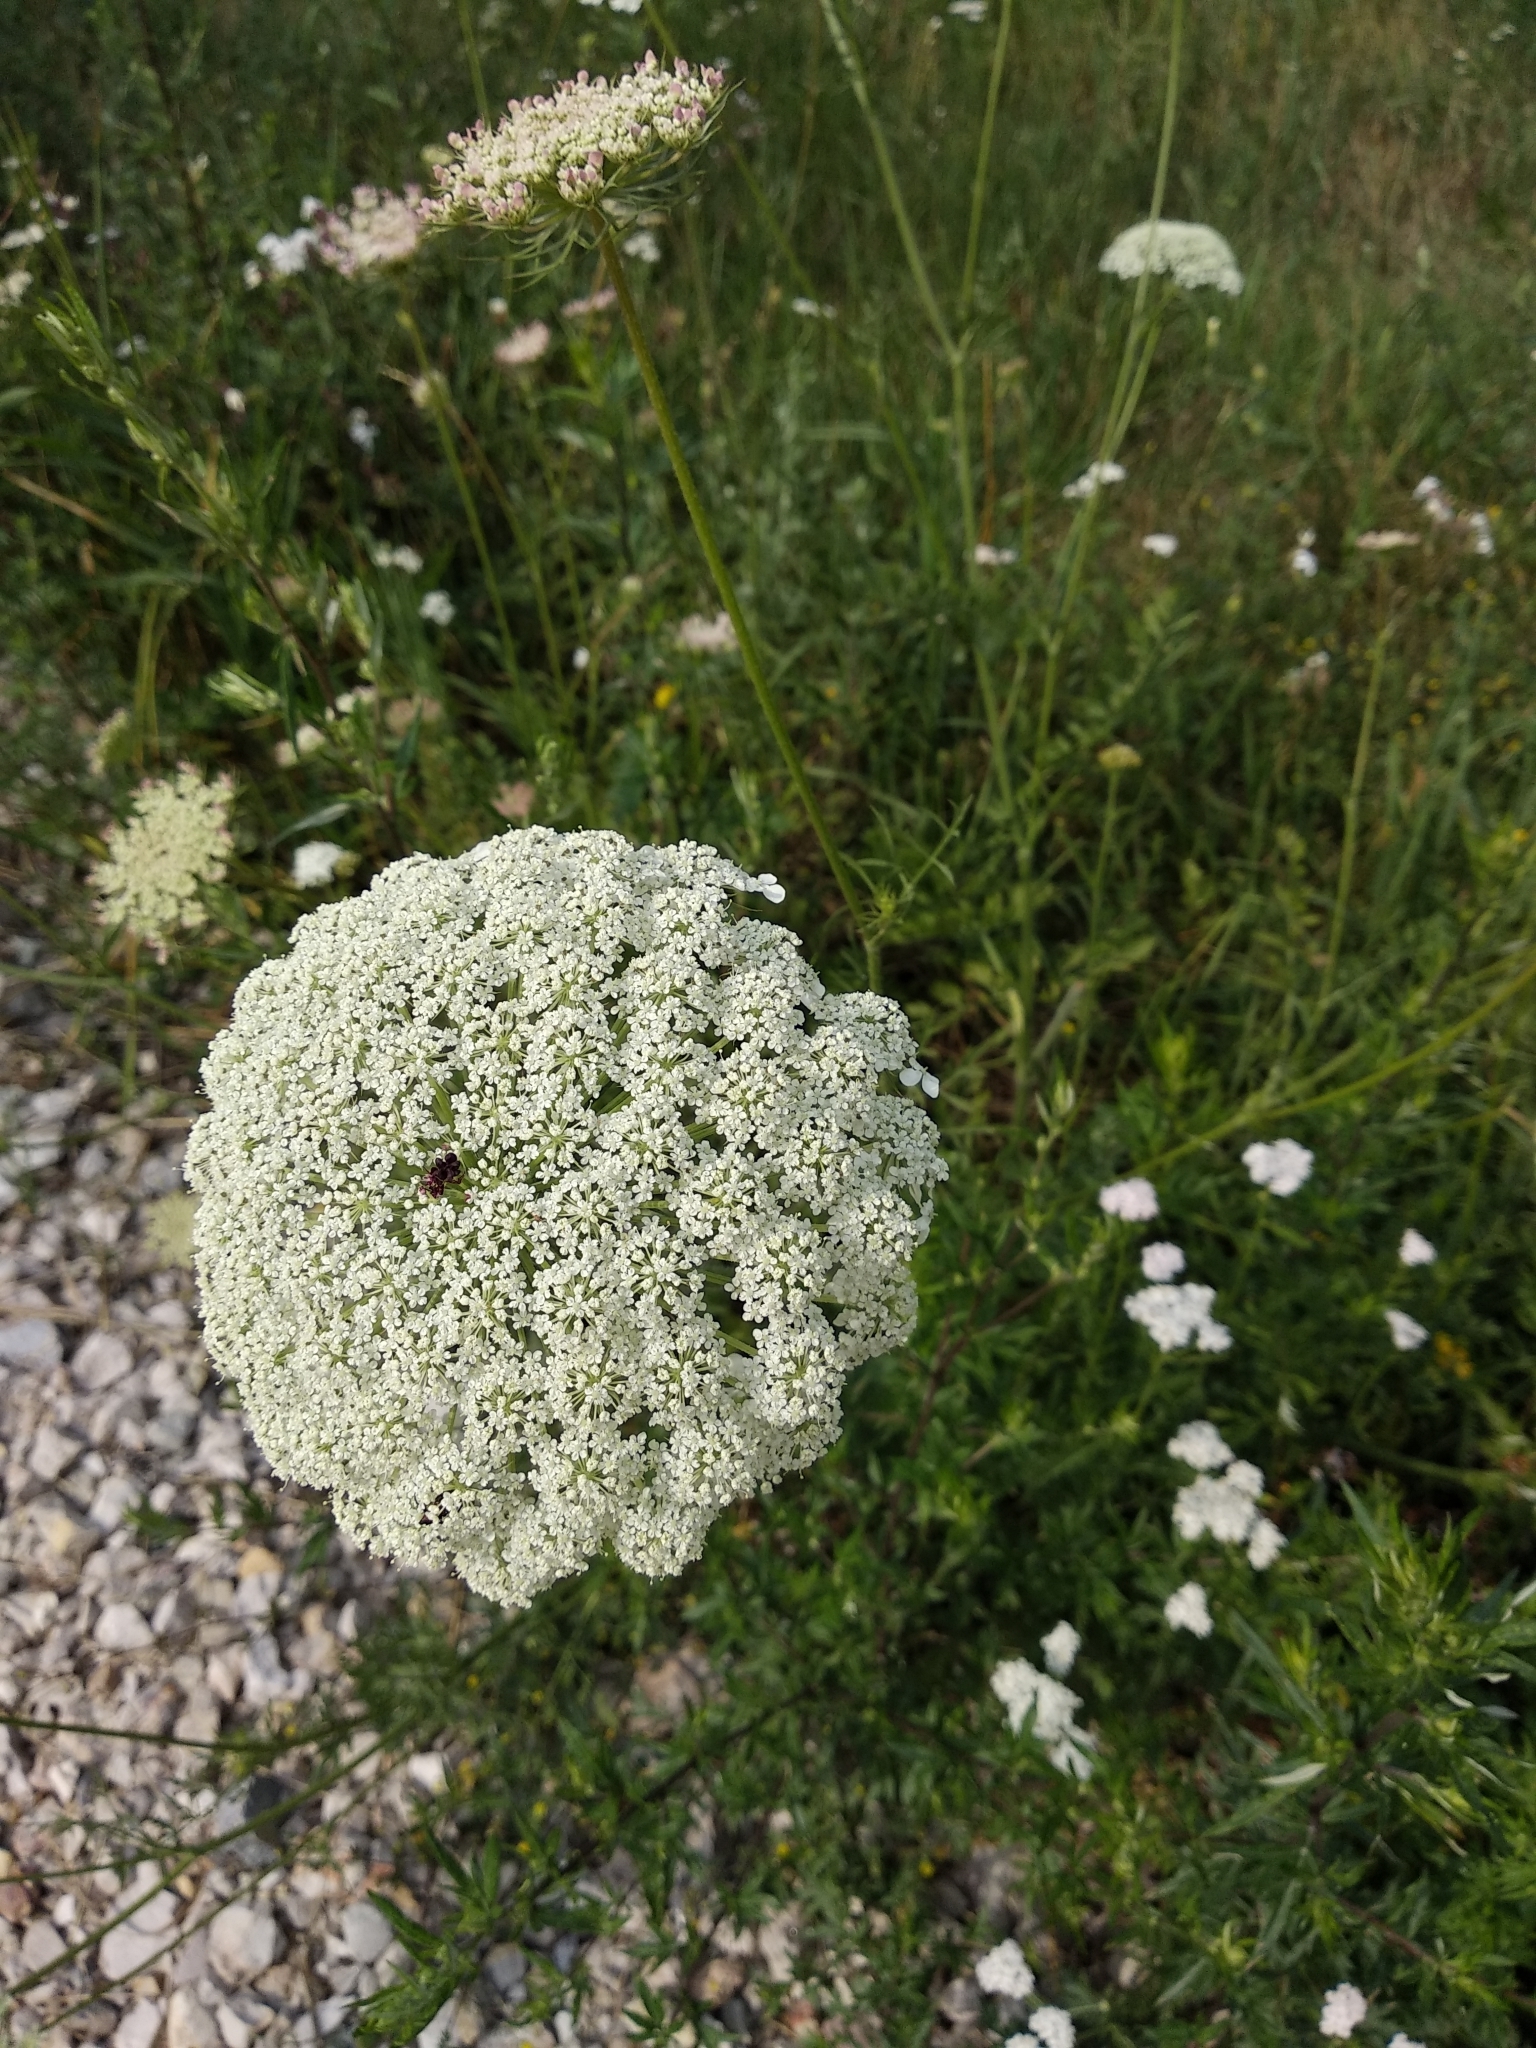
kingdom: Plantae
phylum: Tracheophyta
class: Magnoliopsida
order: Apiales
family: Apiaceae
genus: Daucus
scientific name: Daucus carota
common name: Wild carrot
